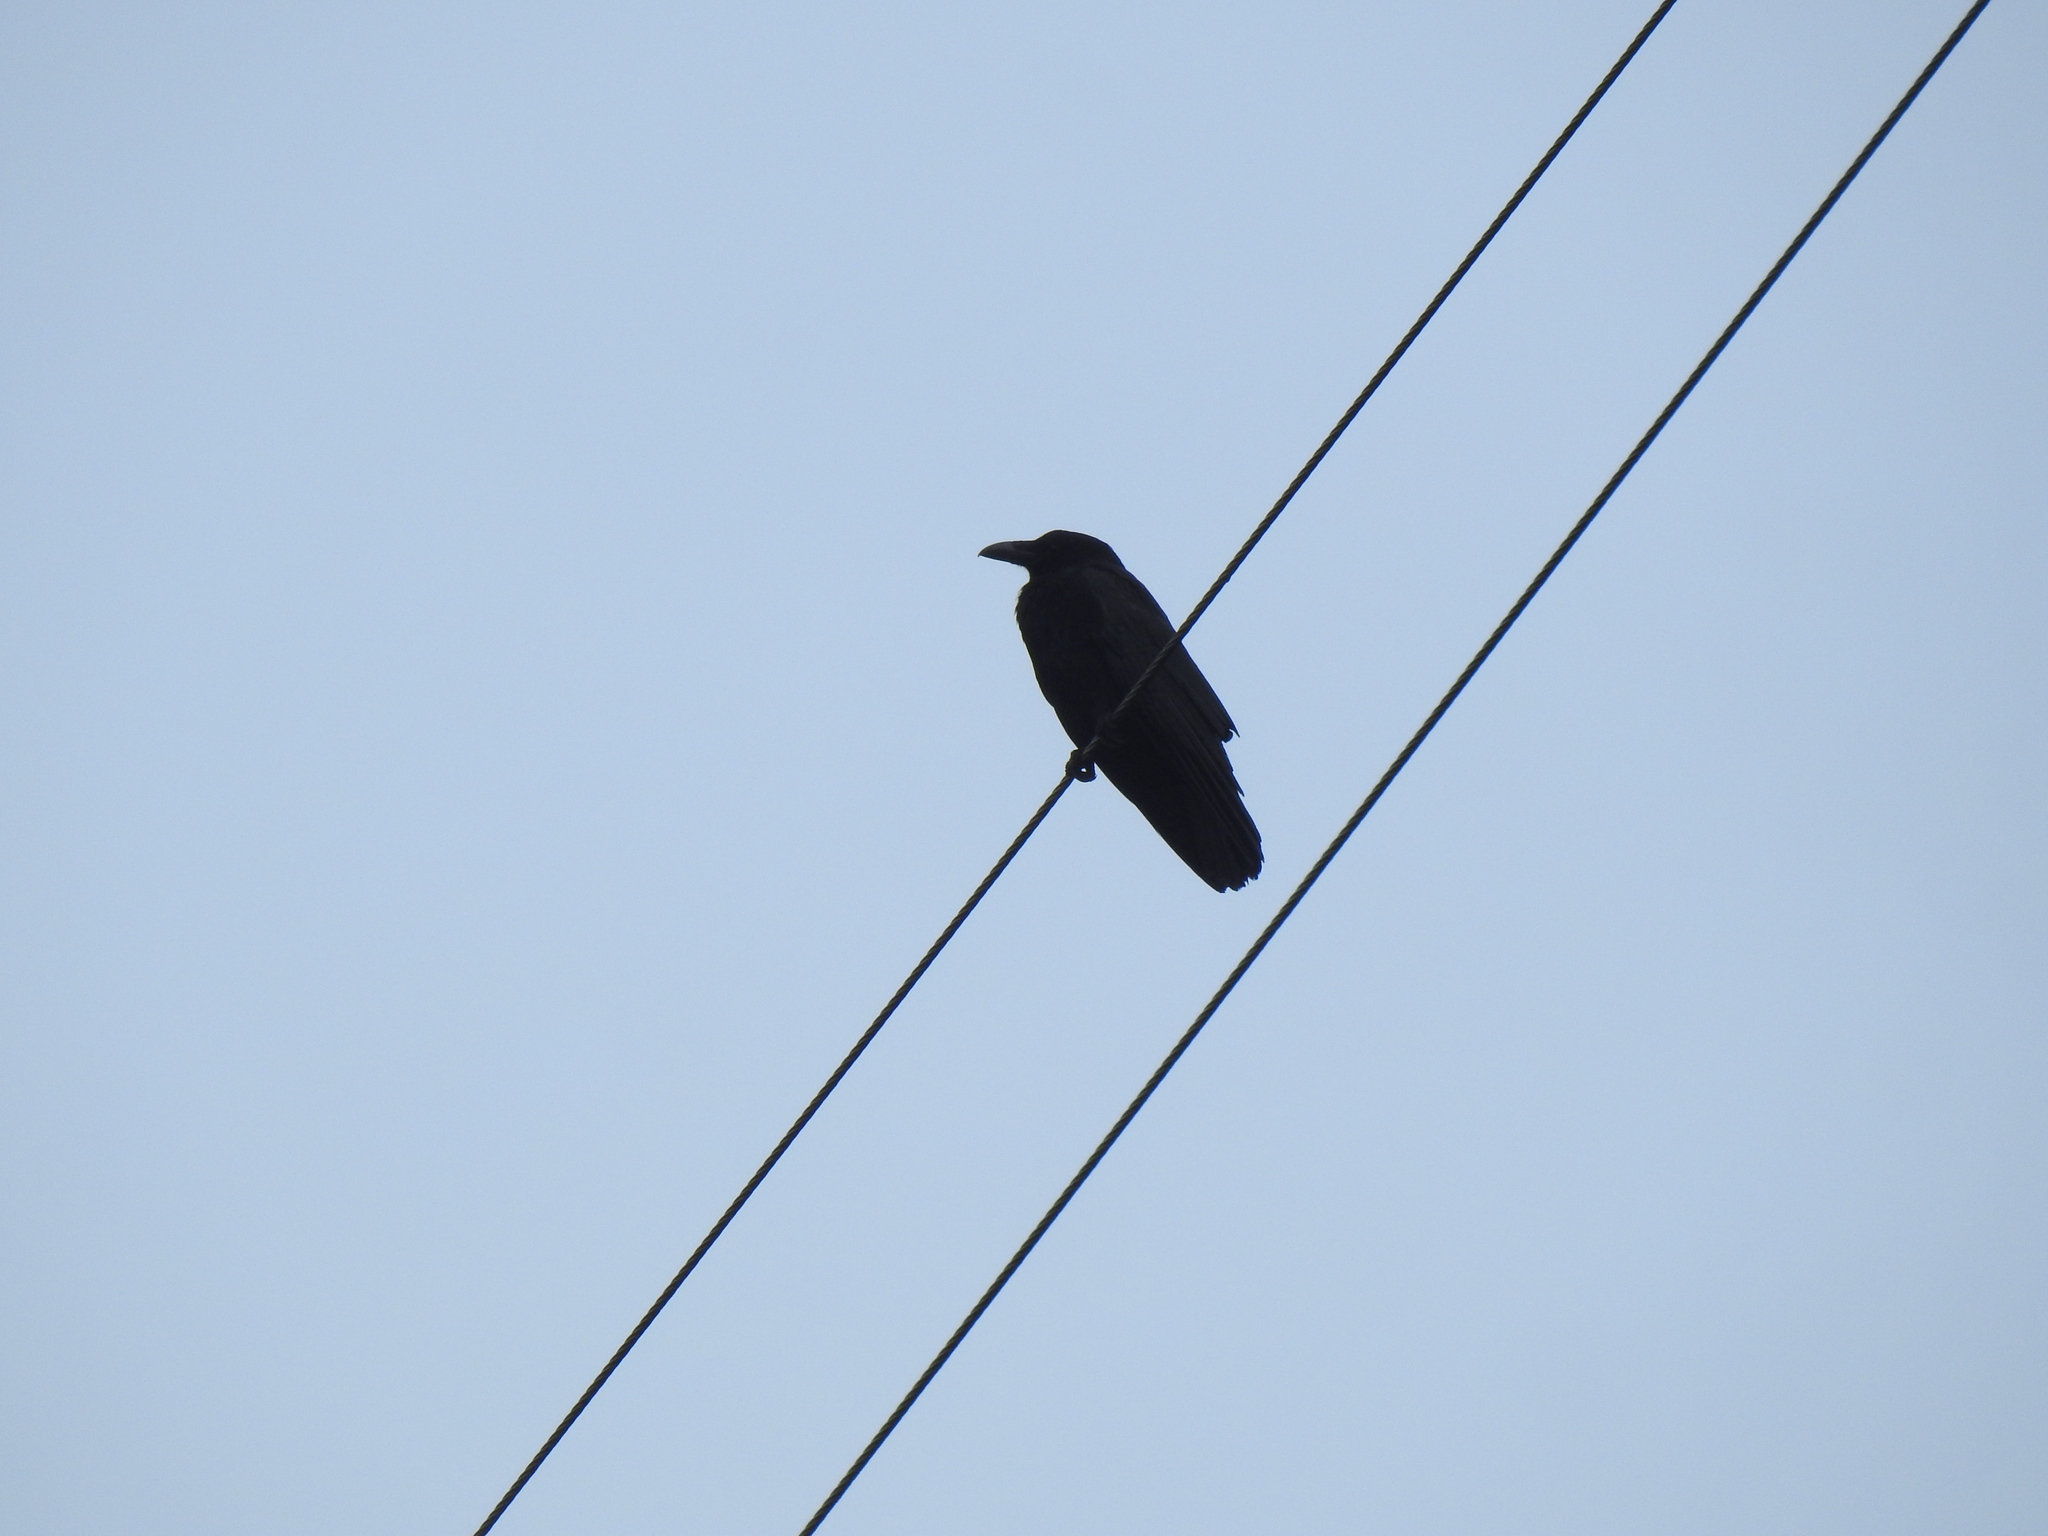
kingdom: Animalia
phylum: Chordata
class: Aves
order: Passeriformes
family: Corvidae
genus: Corvus
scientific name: Corvus corone
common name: Carrion crow
